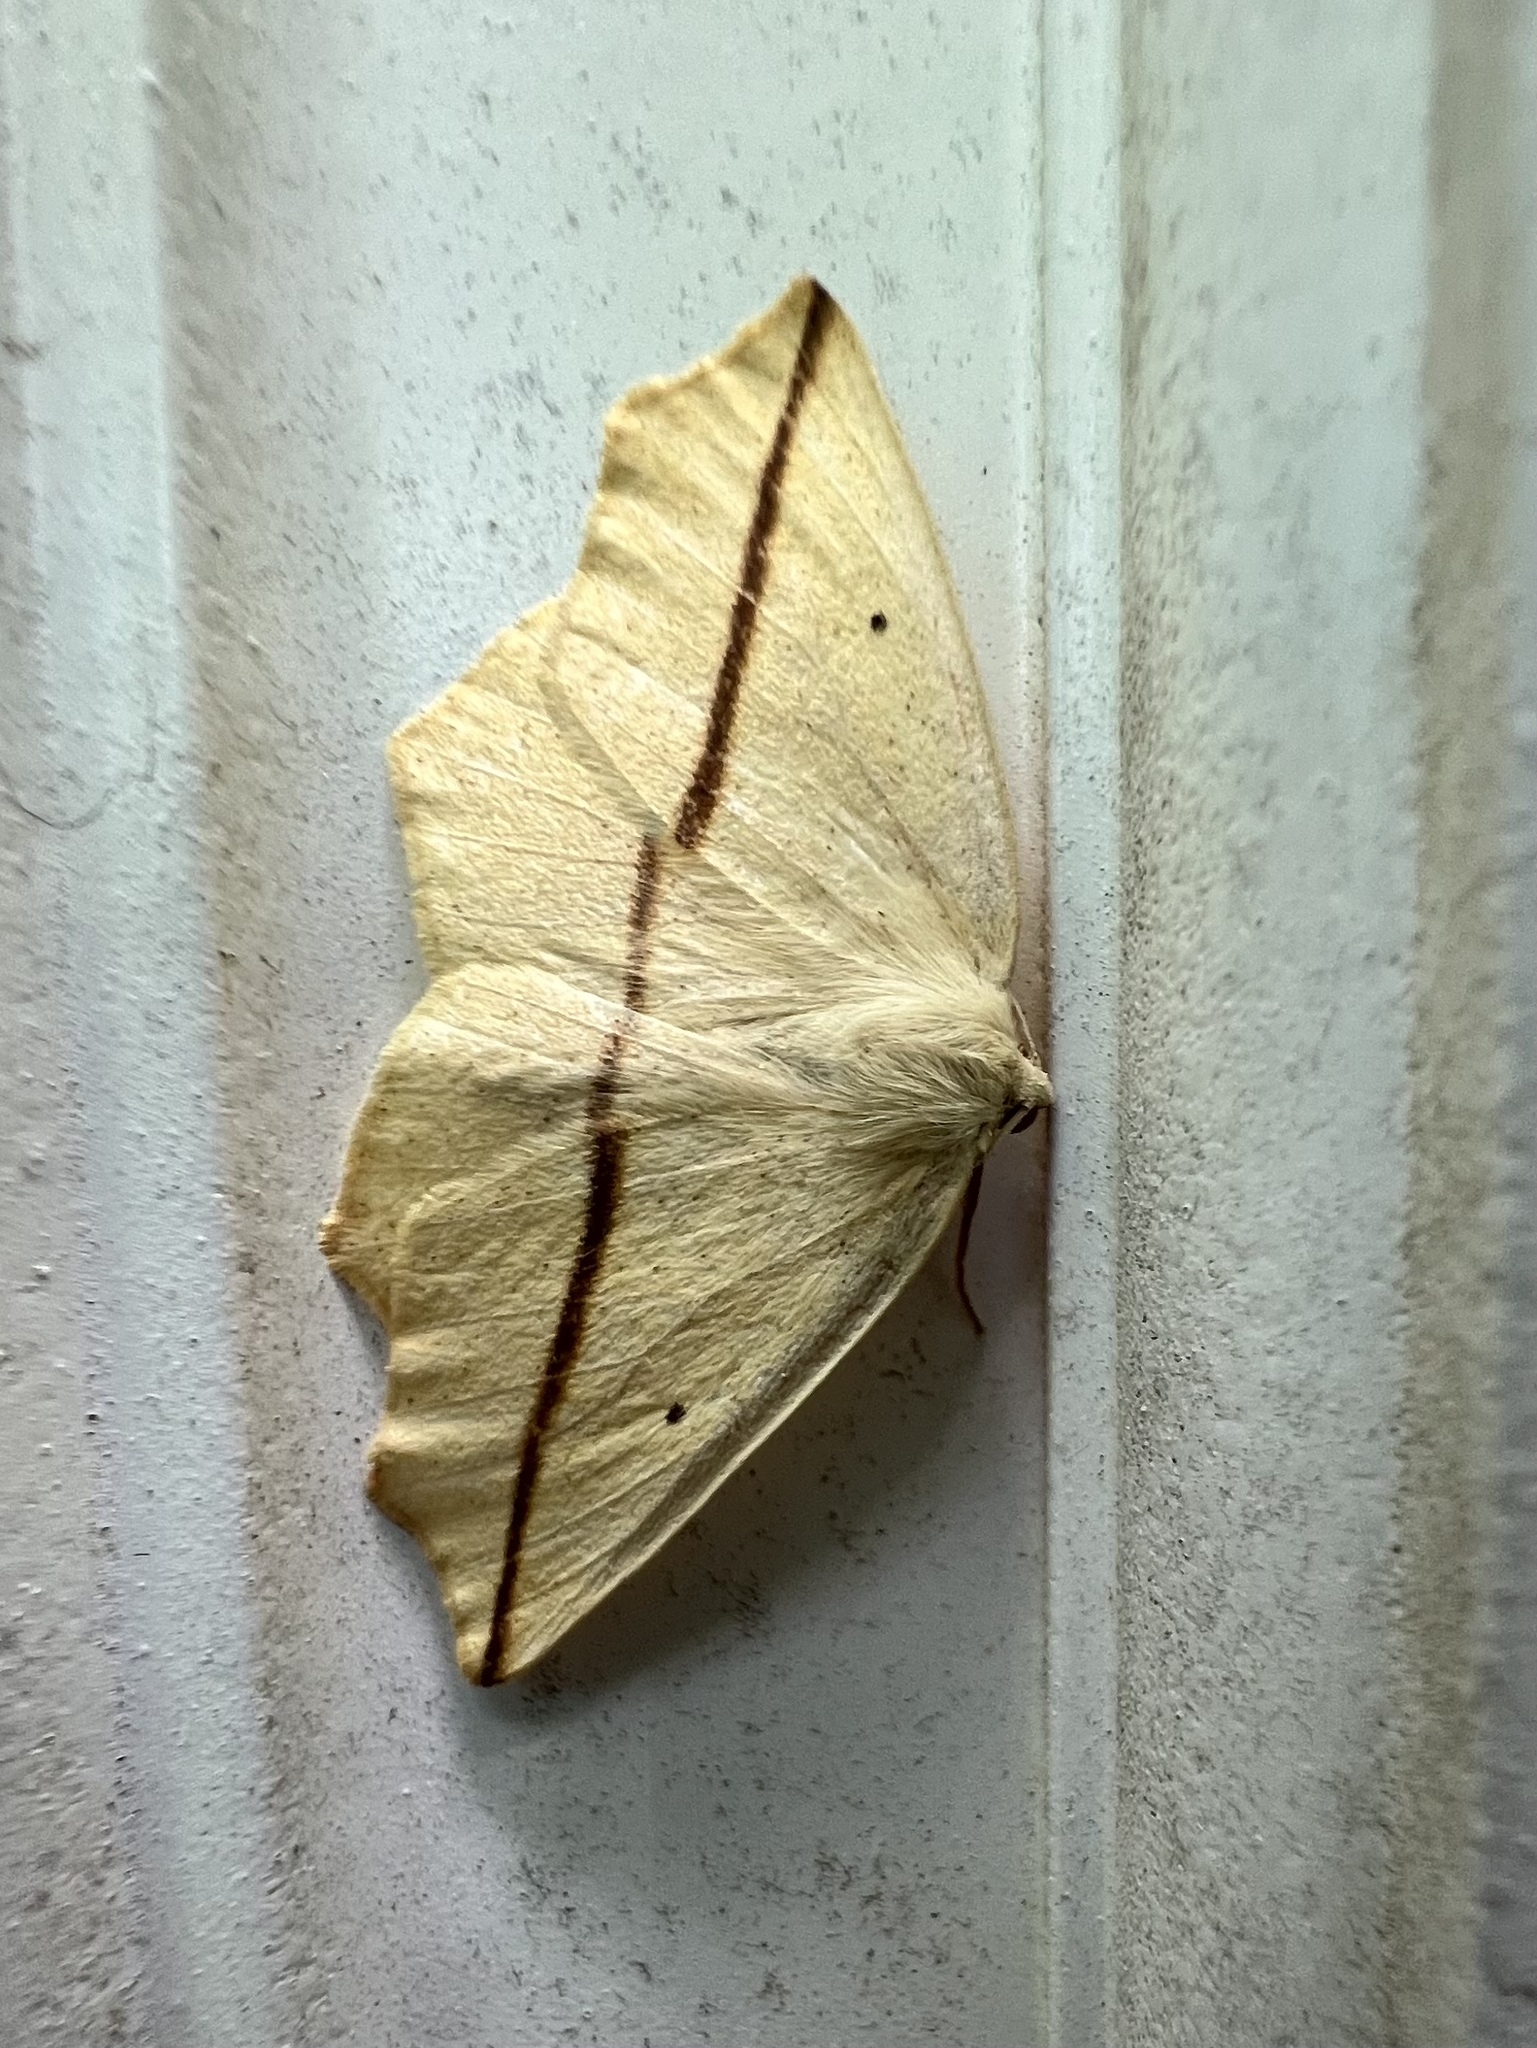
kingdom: Animalia
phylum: Arthropoda
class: Insecta
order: Lepidoptera
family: Geometridae
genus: Tetracis
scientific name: Tetracis crocallata
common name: Yellow slant-line
